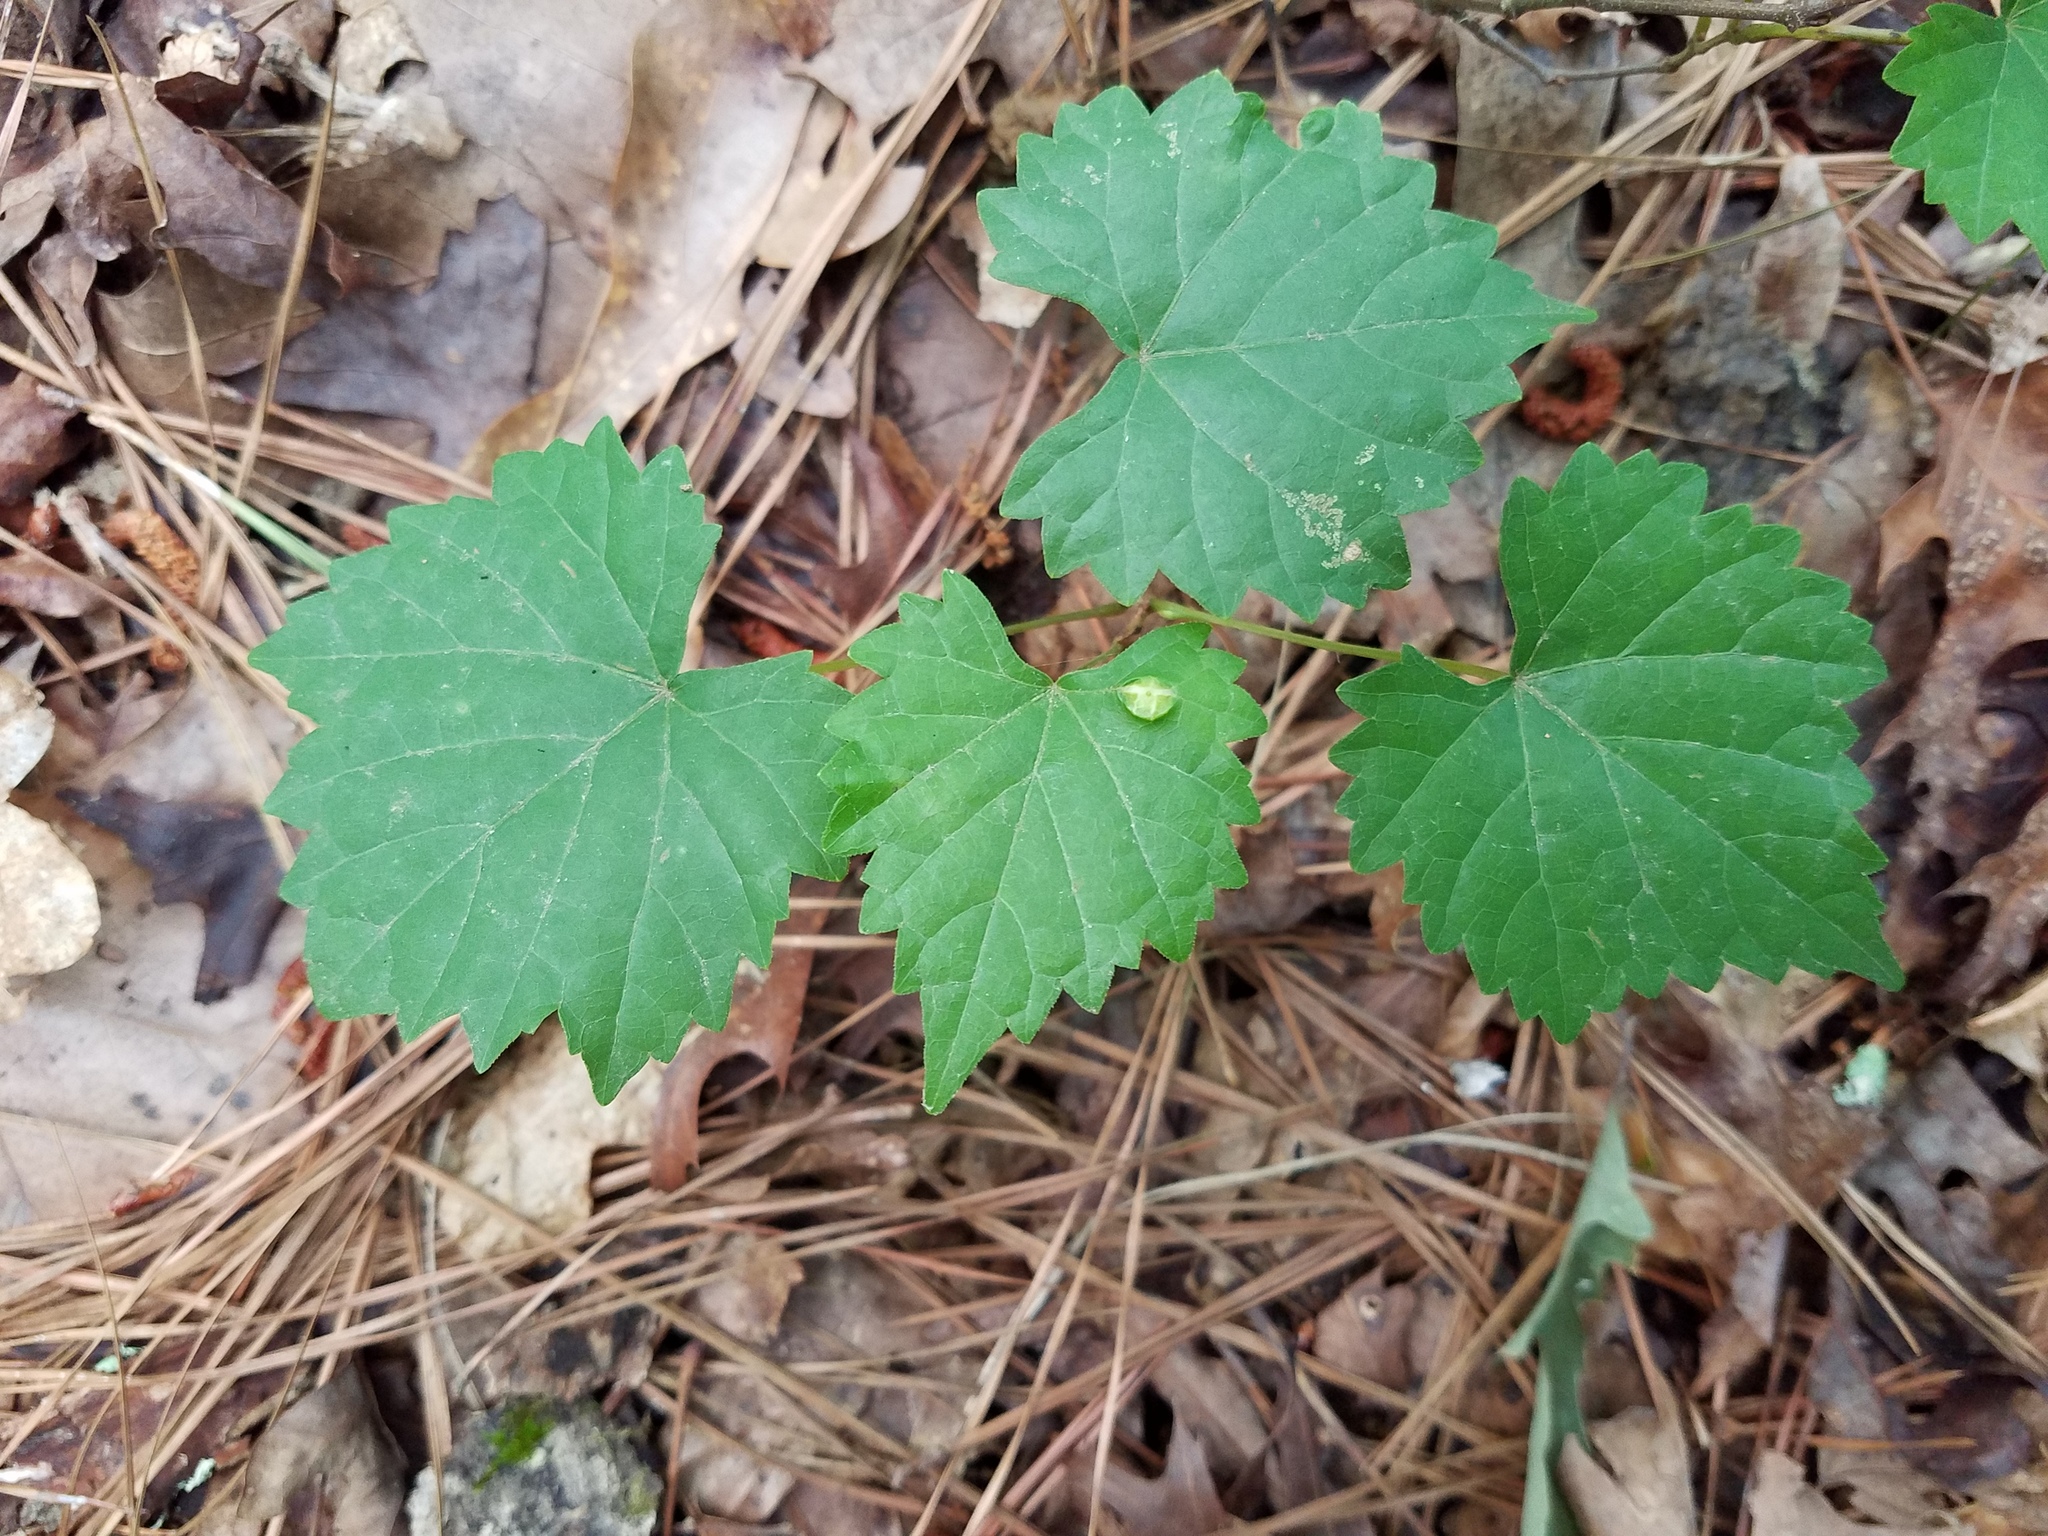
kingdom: Plantae
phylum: Tracheophyta
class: Magnoliopsida
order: Vitales
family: Vitaceae
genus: Vitis
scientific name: Vitis rotundifolia
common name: Muscadine grape
